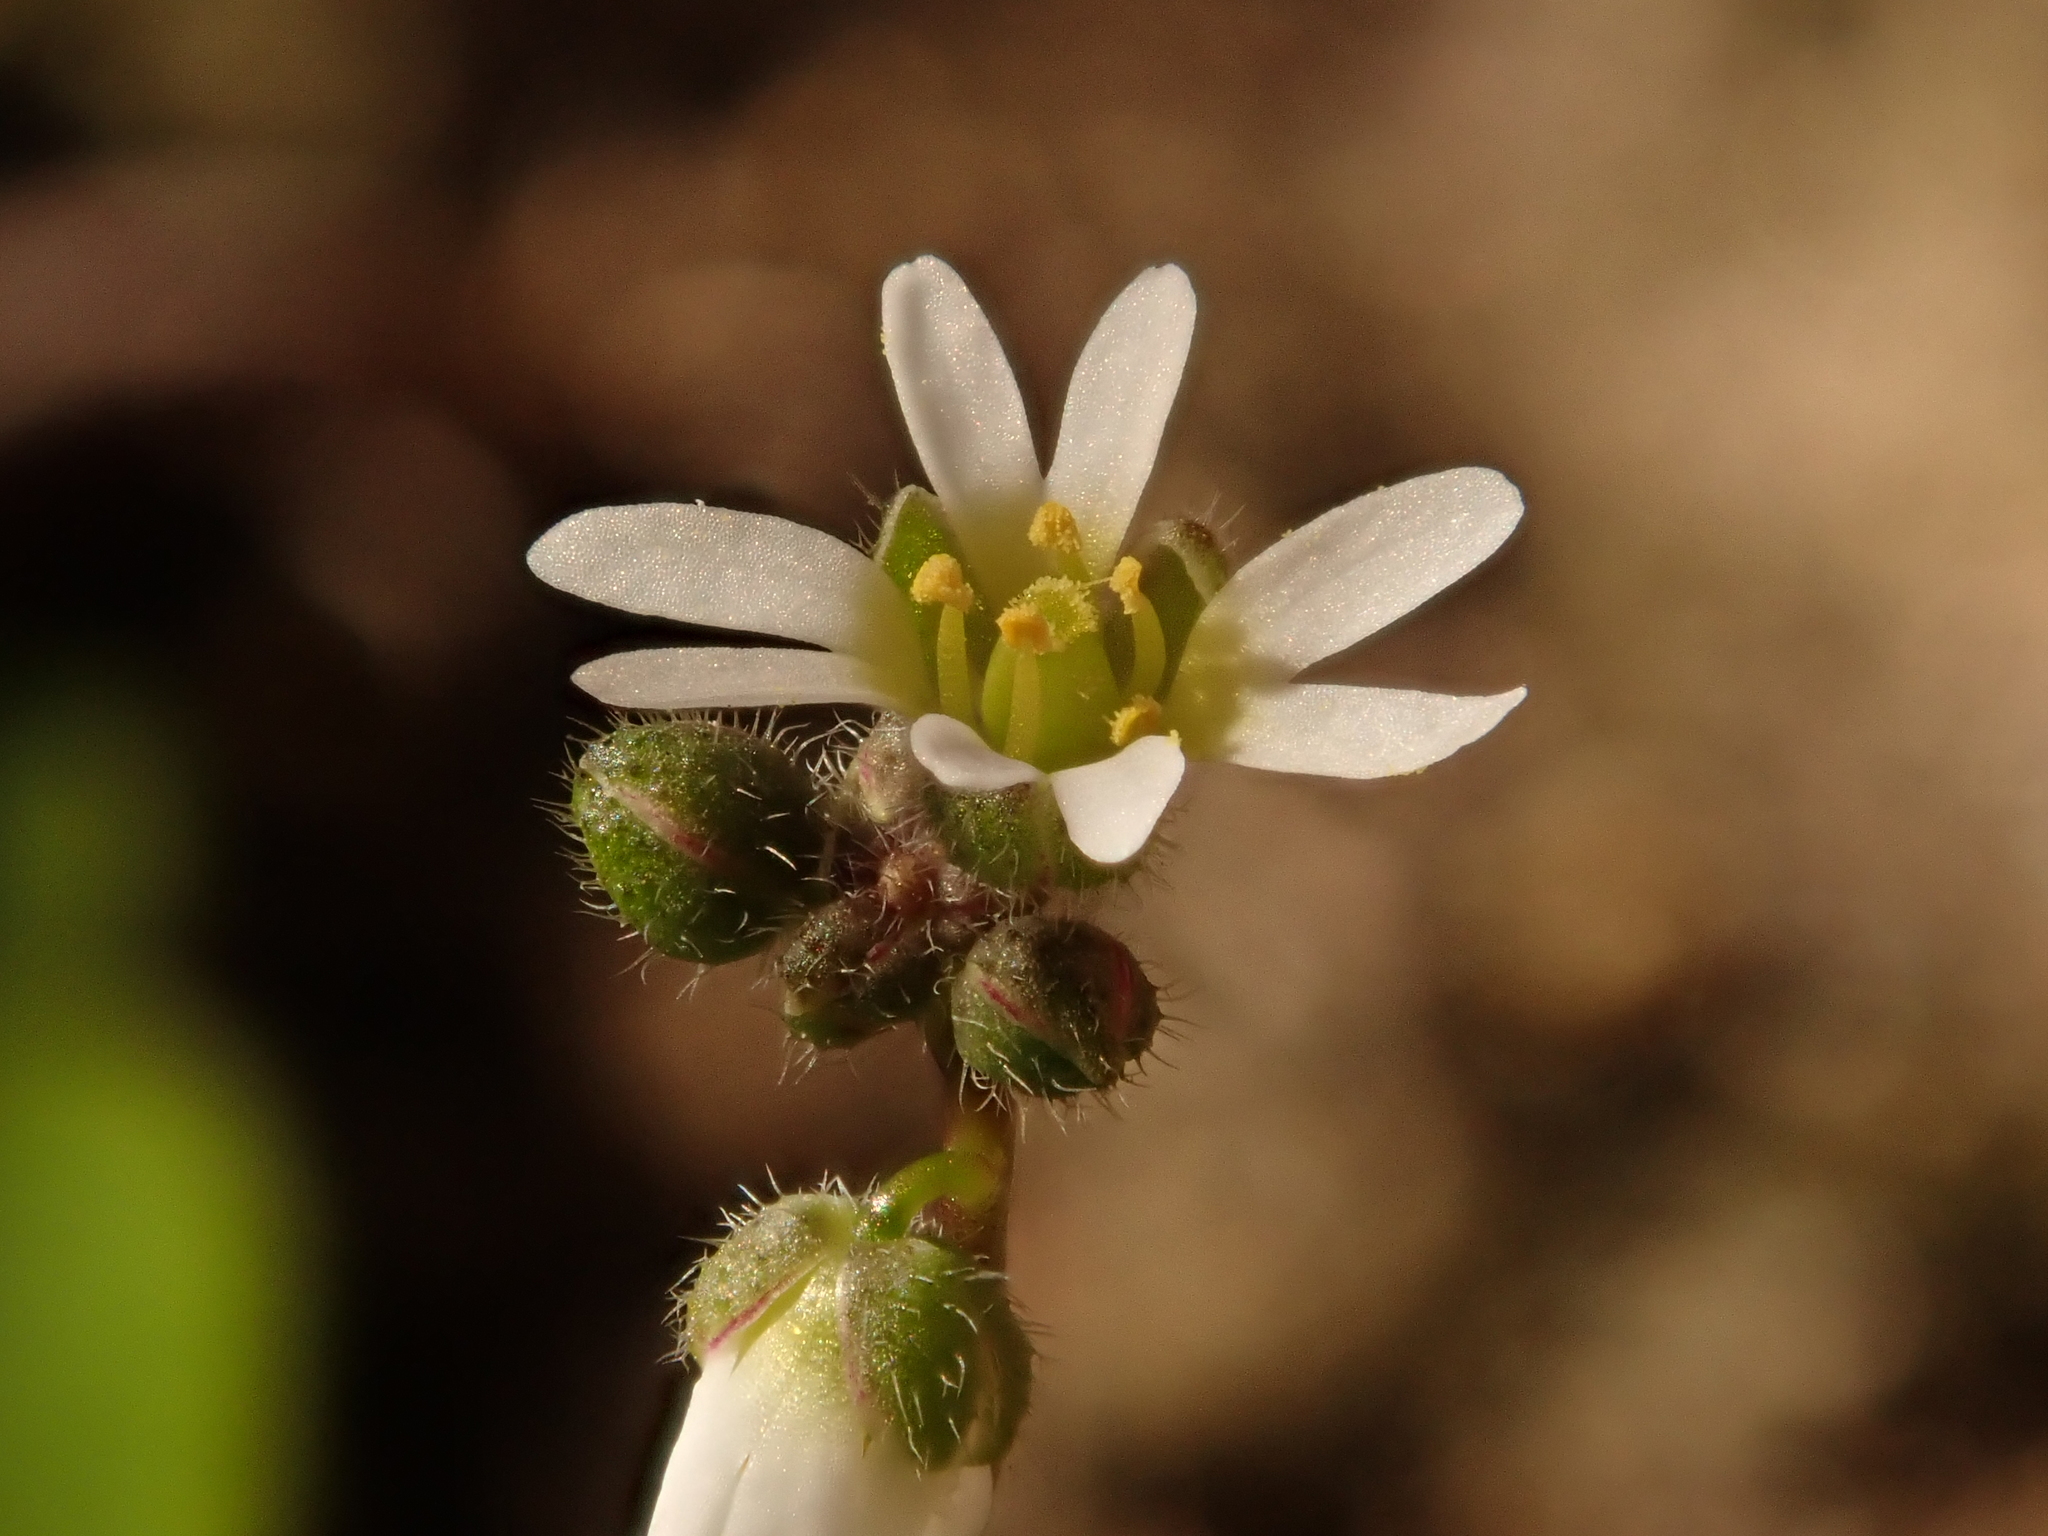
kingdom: Plantae
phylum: Tracheophyta
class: Magnoliopsida
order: Brassicales
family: Brassicaceae
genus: Draba
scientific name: Draba verna
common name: Spring draba
